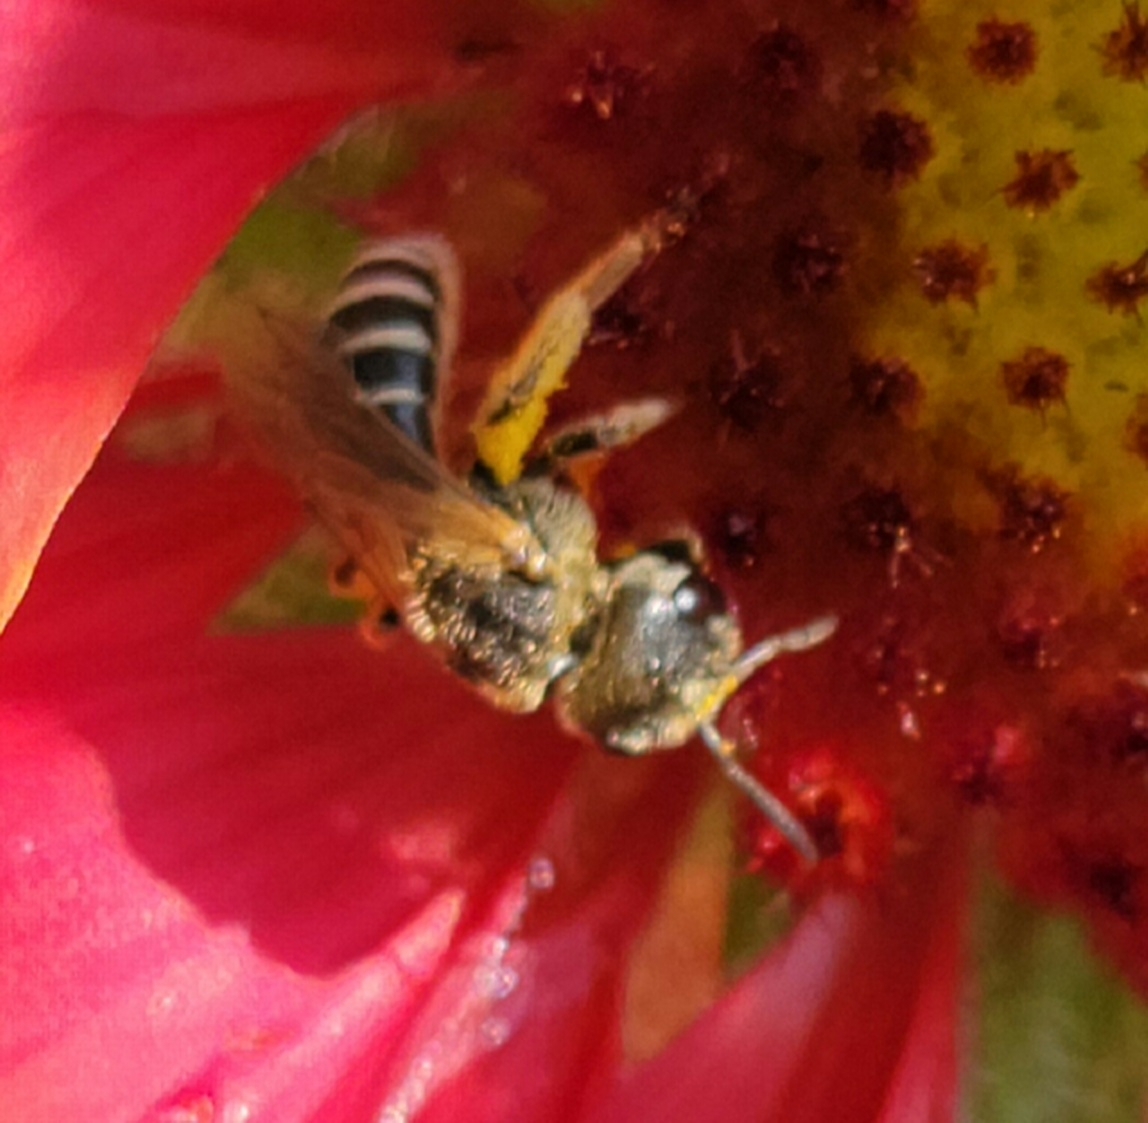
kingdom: Animalia
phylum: Arthropoda
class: Insecta
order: Hymenoptera
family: Halictidae
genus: Halictus
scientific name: Halictus ligatus
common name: Ligated furrow bee
